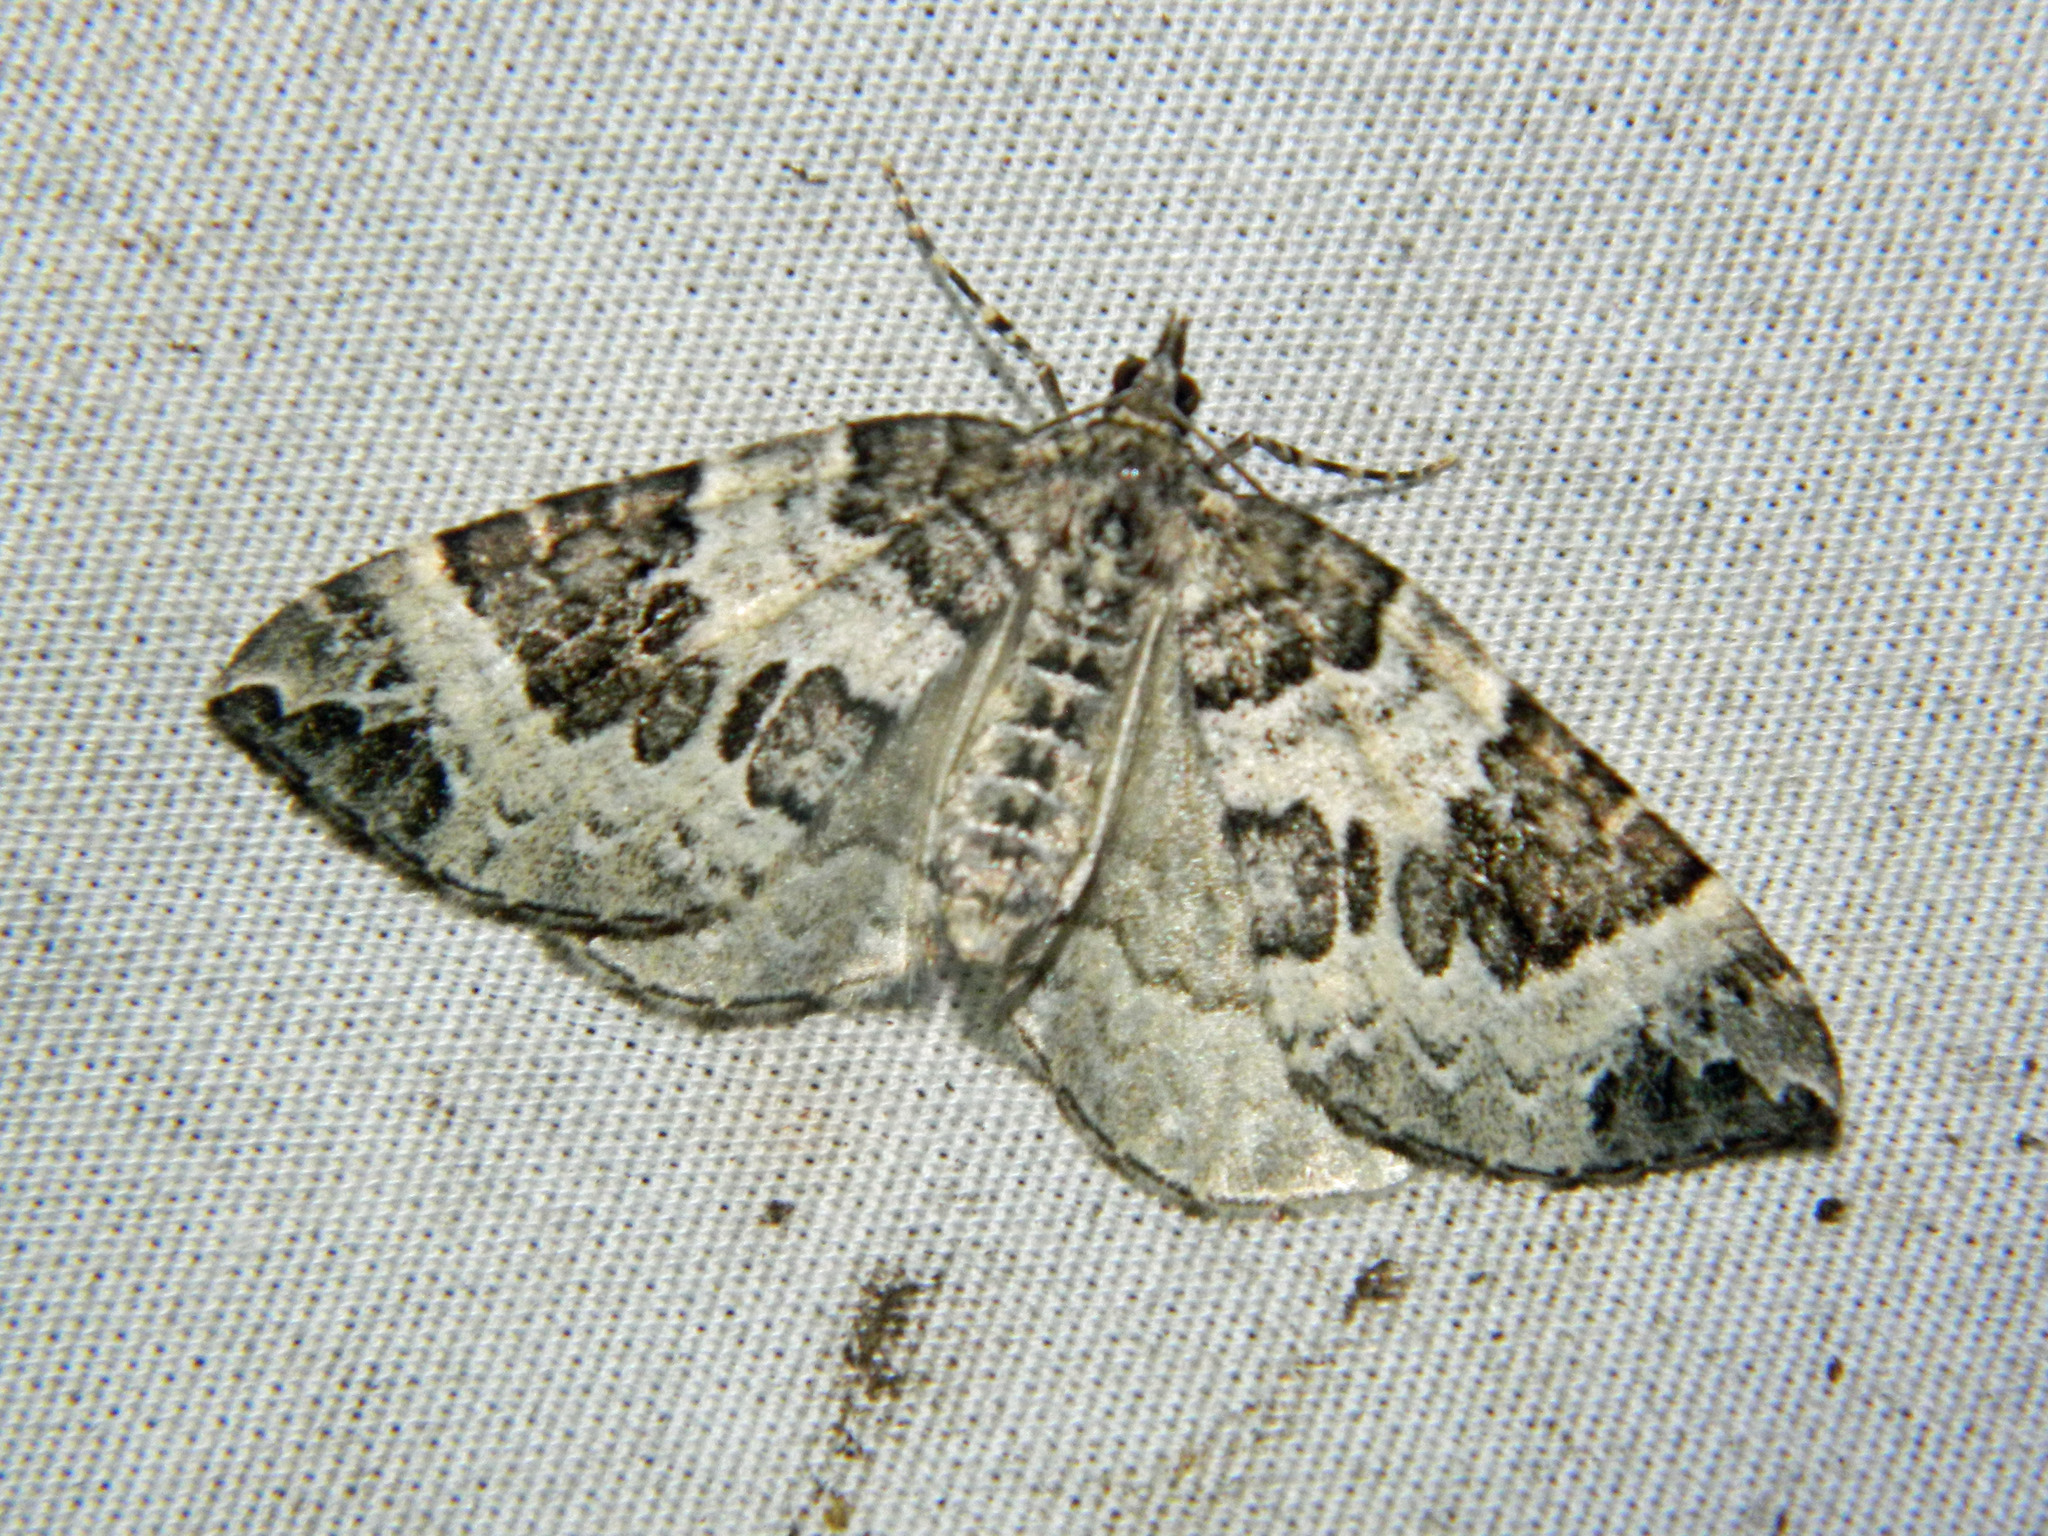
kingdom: Animalia
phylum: Arthropoda
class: Insecta
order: Lepidoptera
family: Geometridae
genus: Eulithis
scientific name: Eulithis explanata
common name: White eulithis
